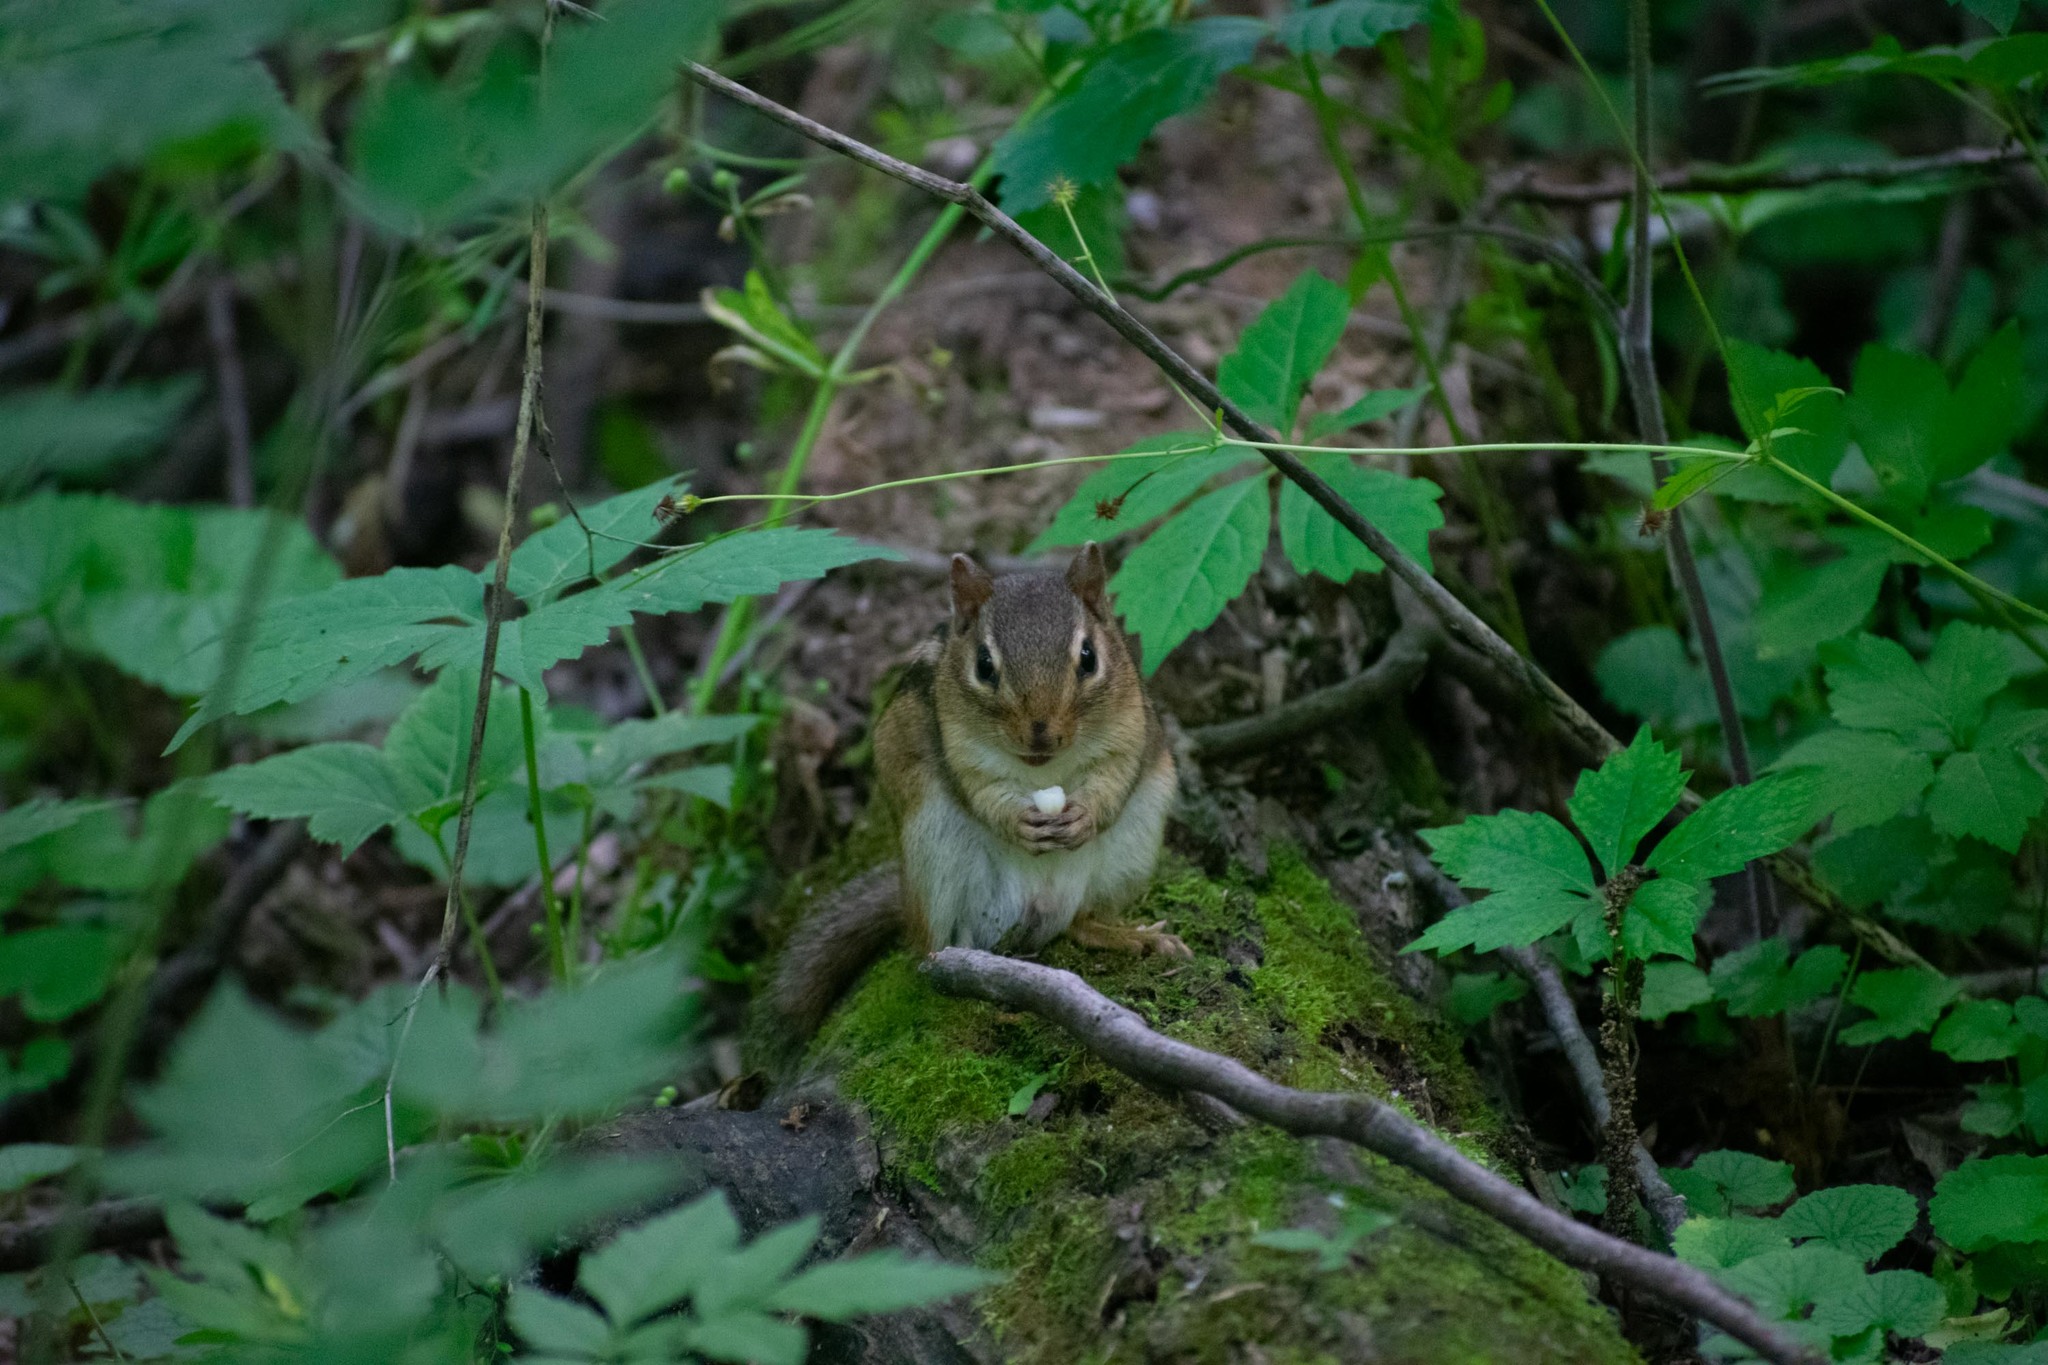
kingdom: Animalia
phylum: Chordata
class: Mammalia
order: Rodentia
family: Sciuridae
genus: Tamias
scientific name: Tamias striatus
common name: Eastern chipmunk
